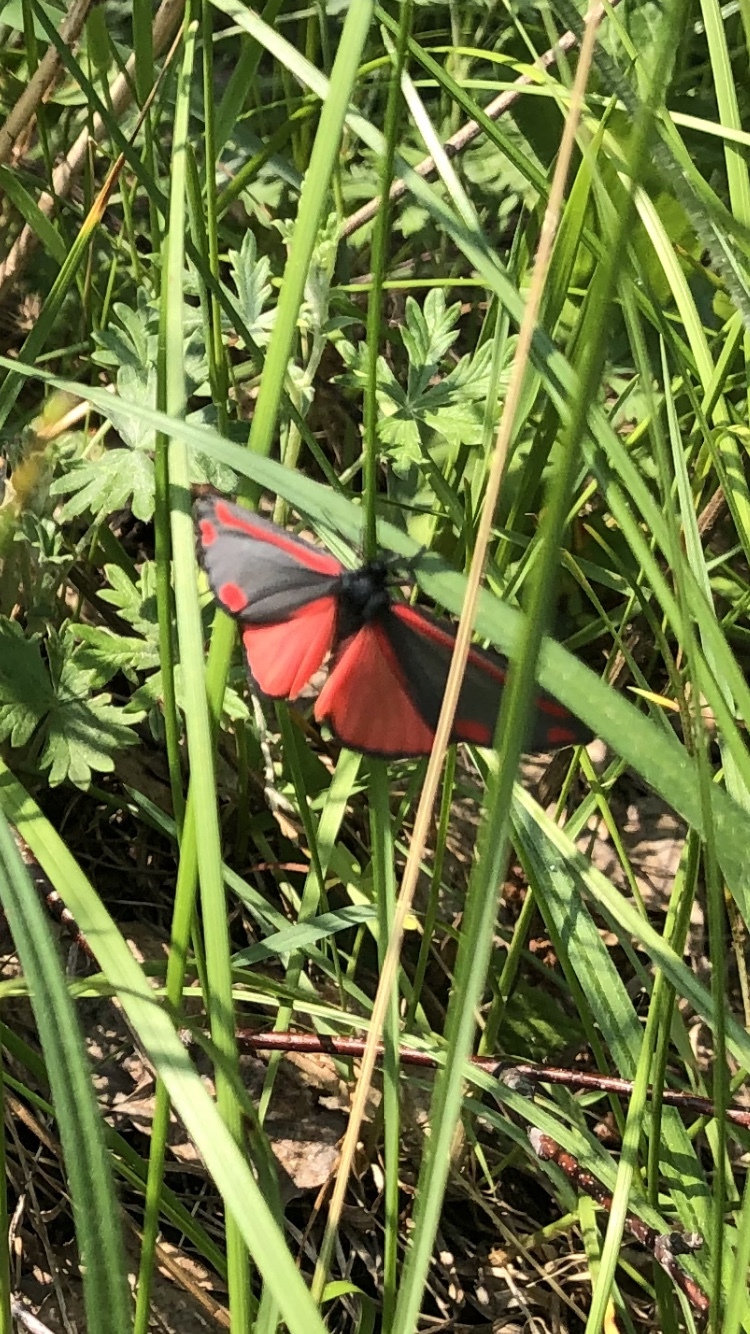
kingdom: Animalia
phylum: Arthropoda
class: Insecta
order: Lepidoptera
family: Erebidae
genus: Tyria
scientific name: Tyria jacobaeae
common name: Cinnabar
